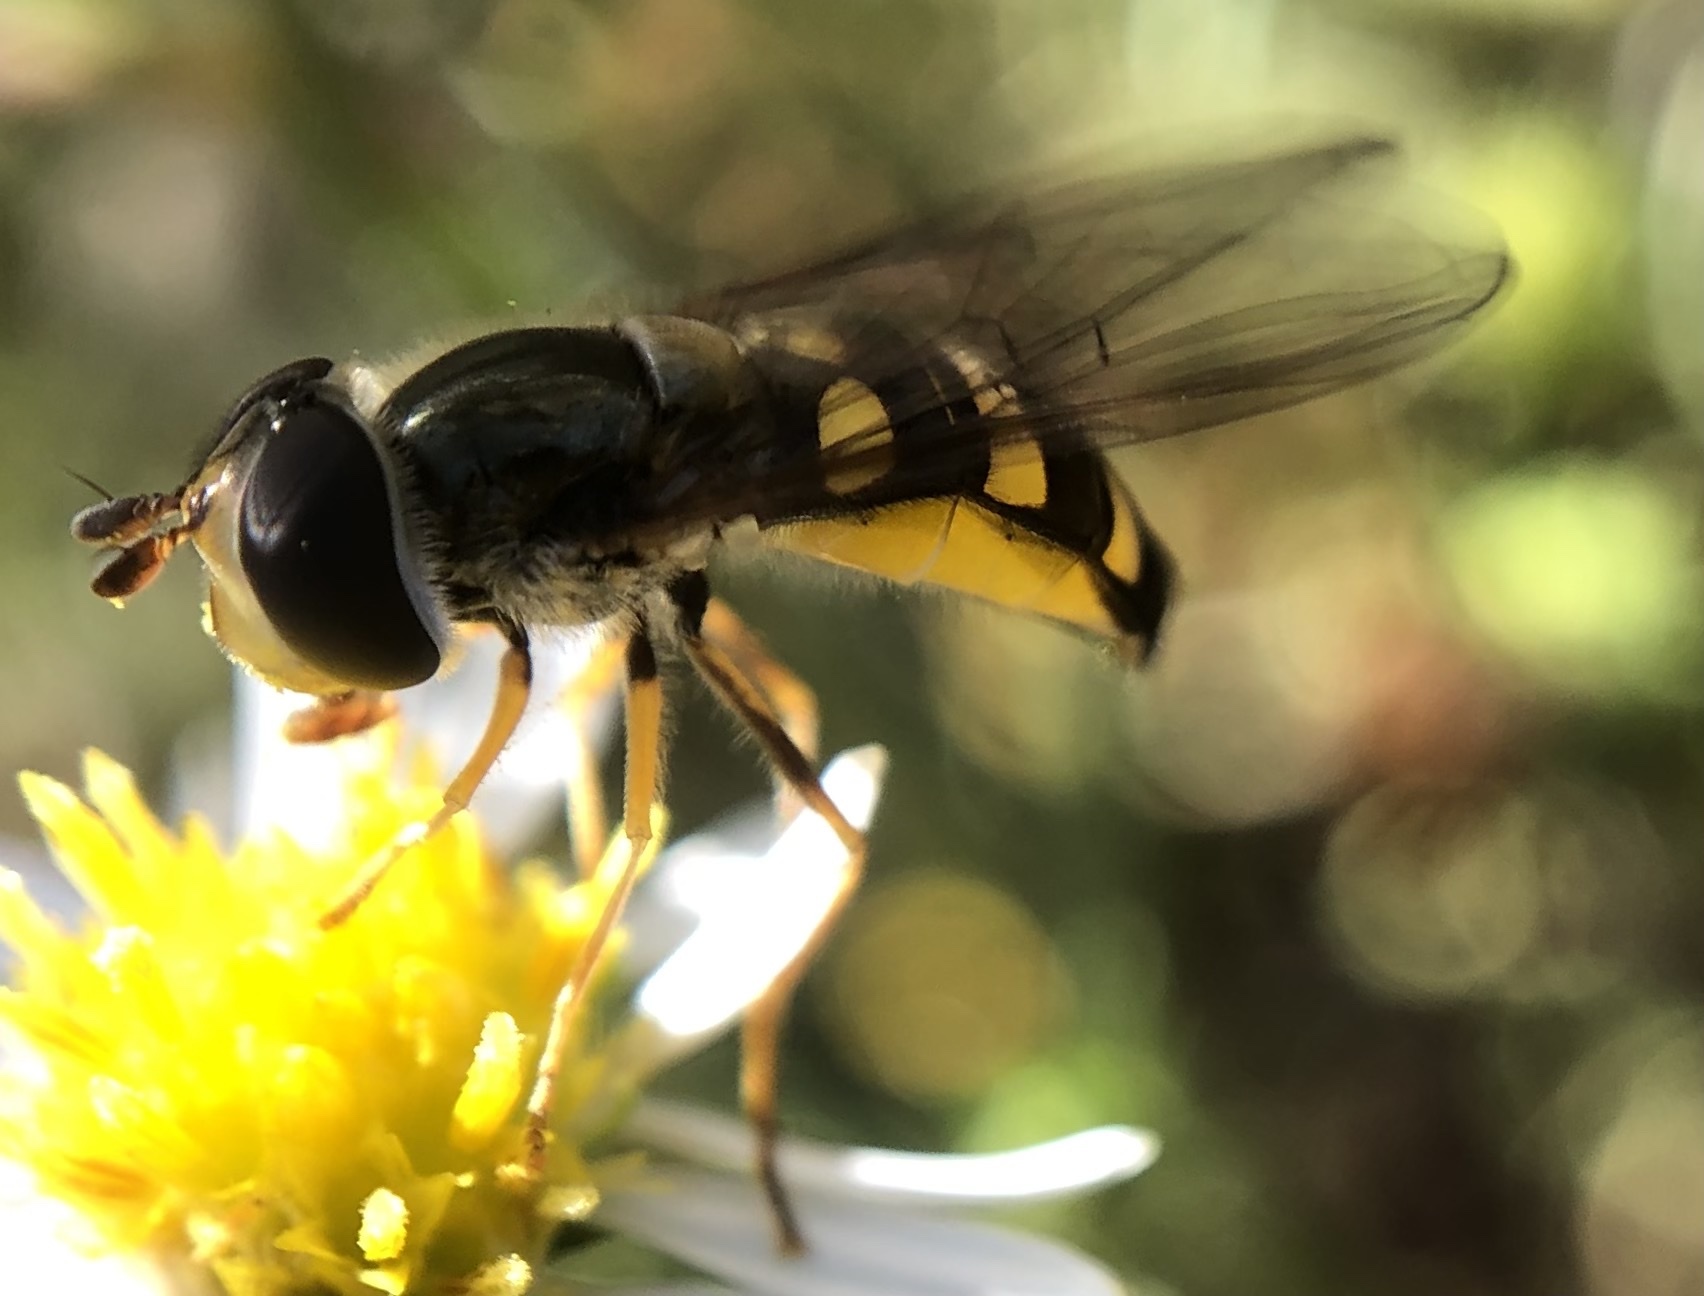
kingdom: Animalia
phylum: Arthropoda
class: Insecta
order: Diptera
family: Syrphidae
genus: Eupeodes
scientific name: Eupeodes
